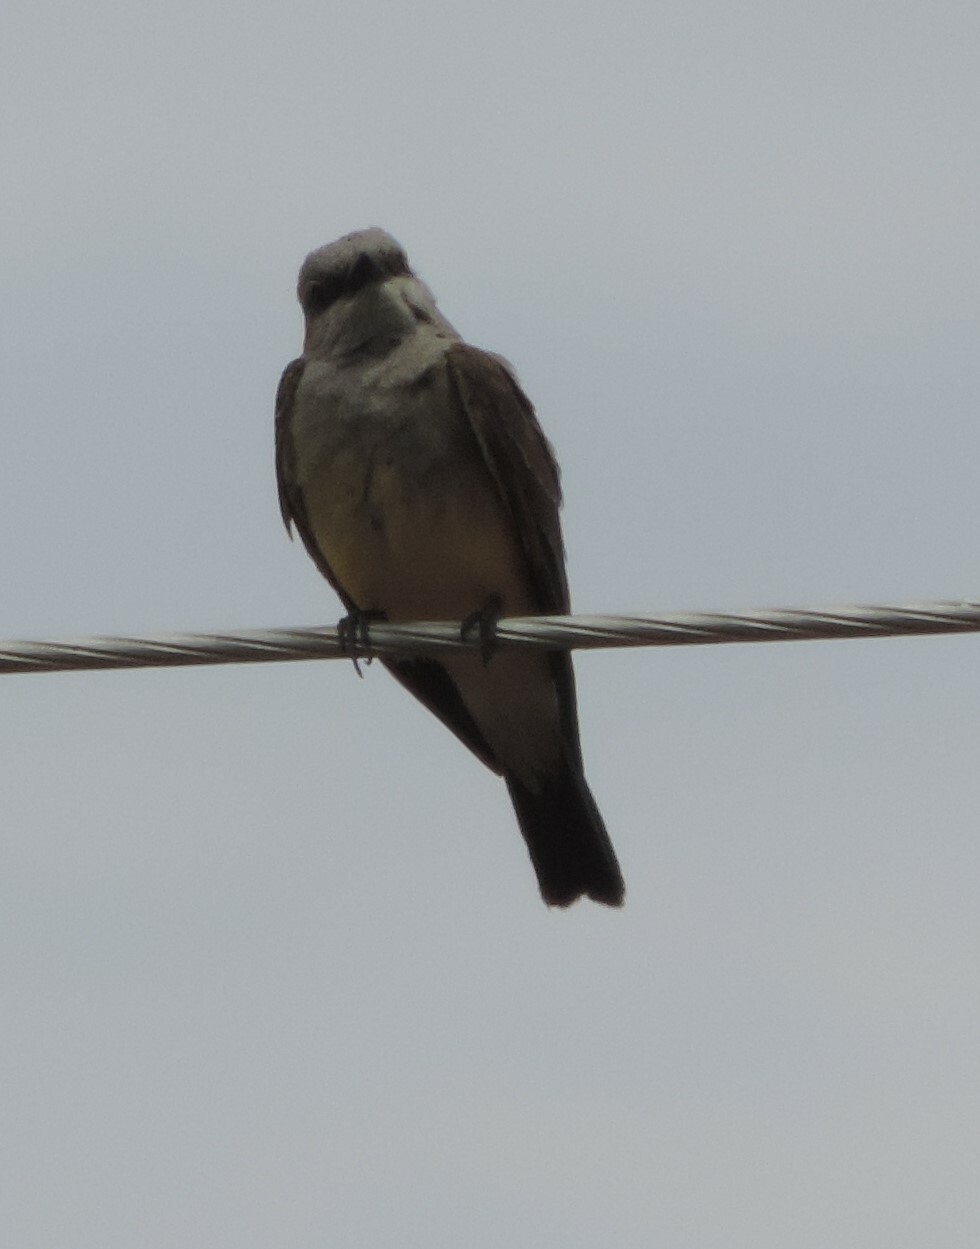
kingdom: Animalia
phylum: Chordata
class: Aves
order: Passeriformes
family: Tyrannidae
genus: Tyrannus
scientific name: Tyrannus verticalis
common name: Western kingbird
